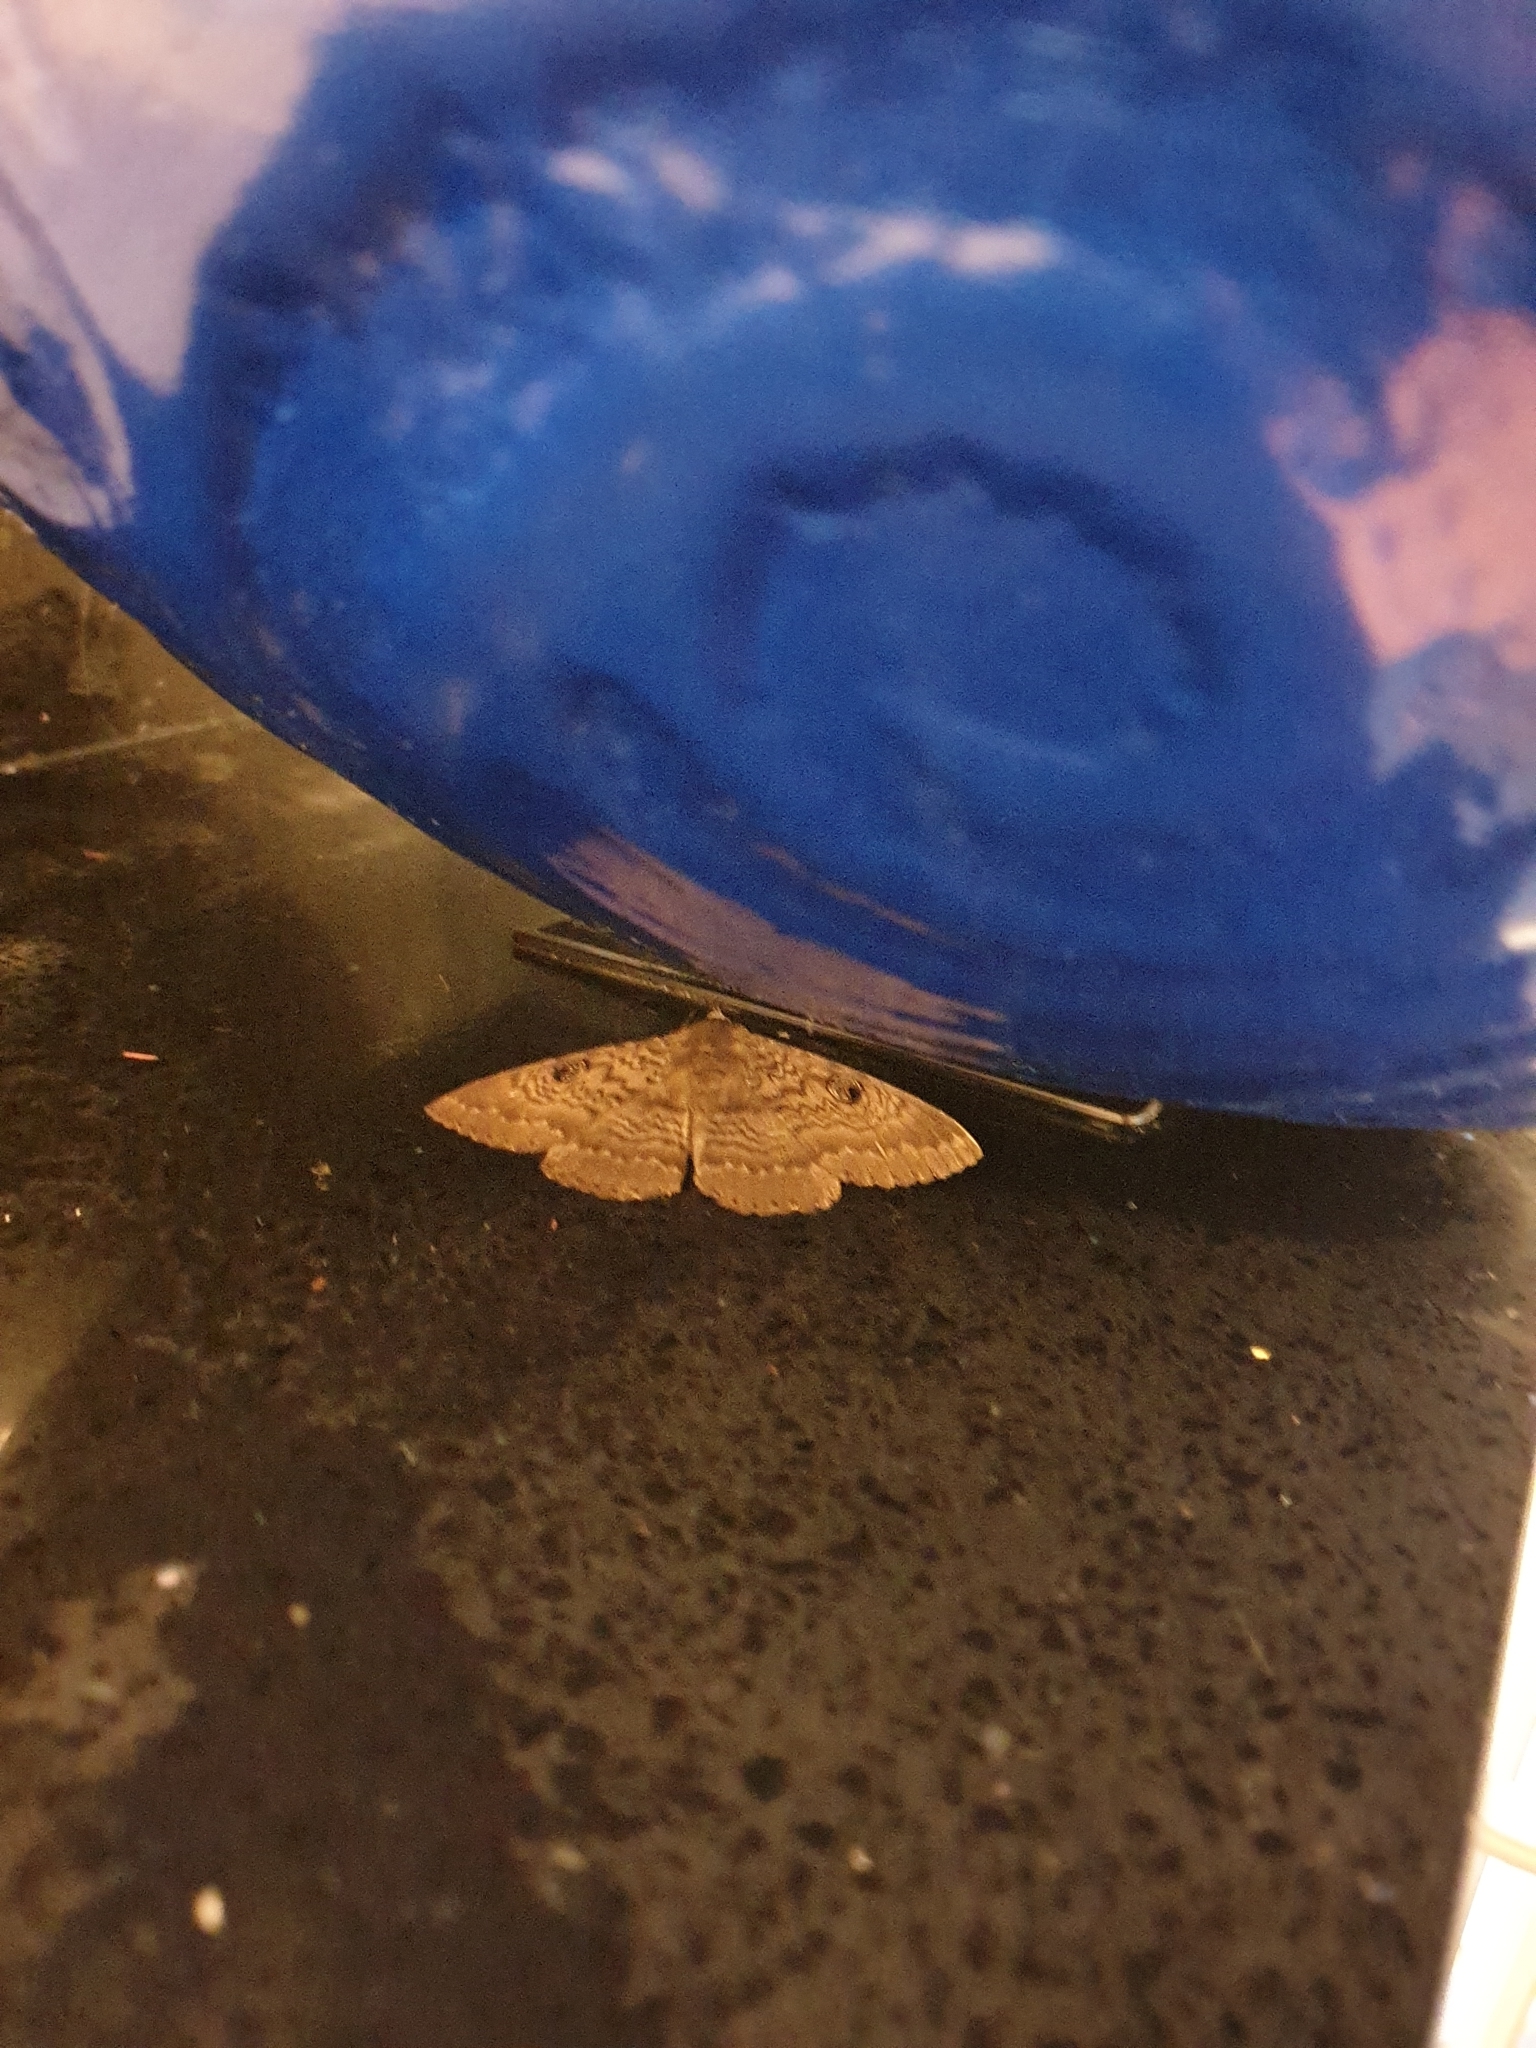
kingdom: Animalia
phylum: Arthropoda
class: Insecta
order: Lepidoptera
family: Erebidae
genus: Dasypodia
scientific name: Dasypodia cymatodes
